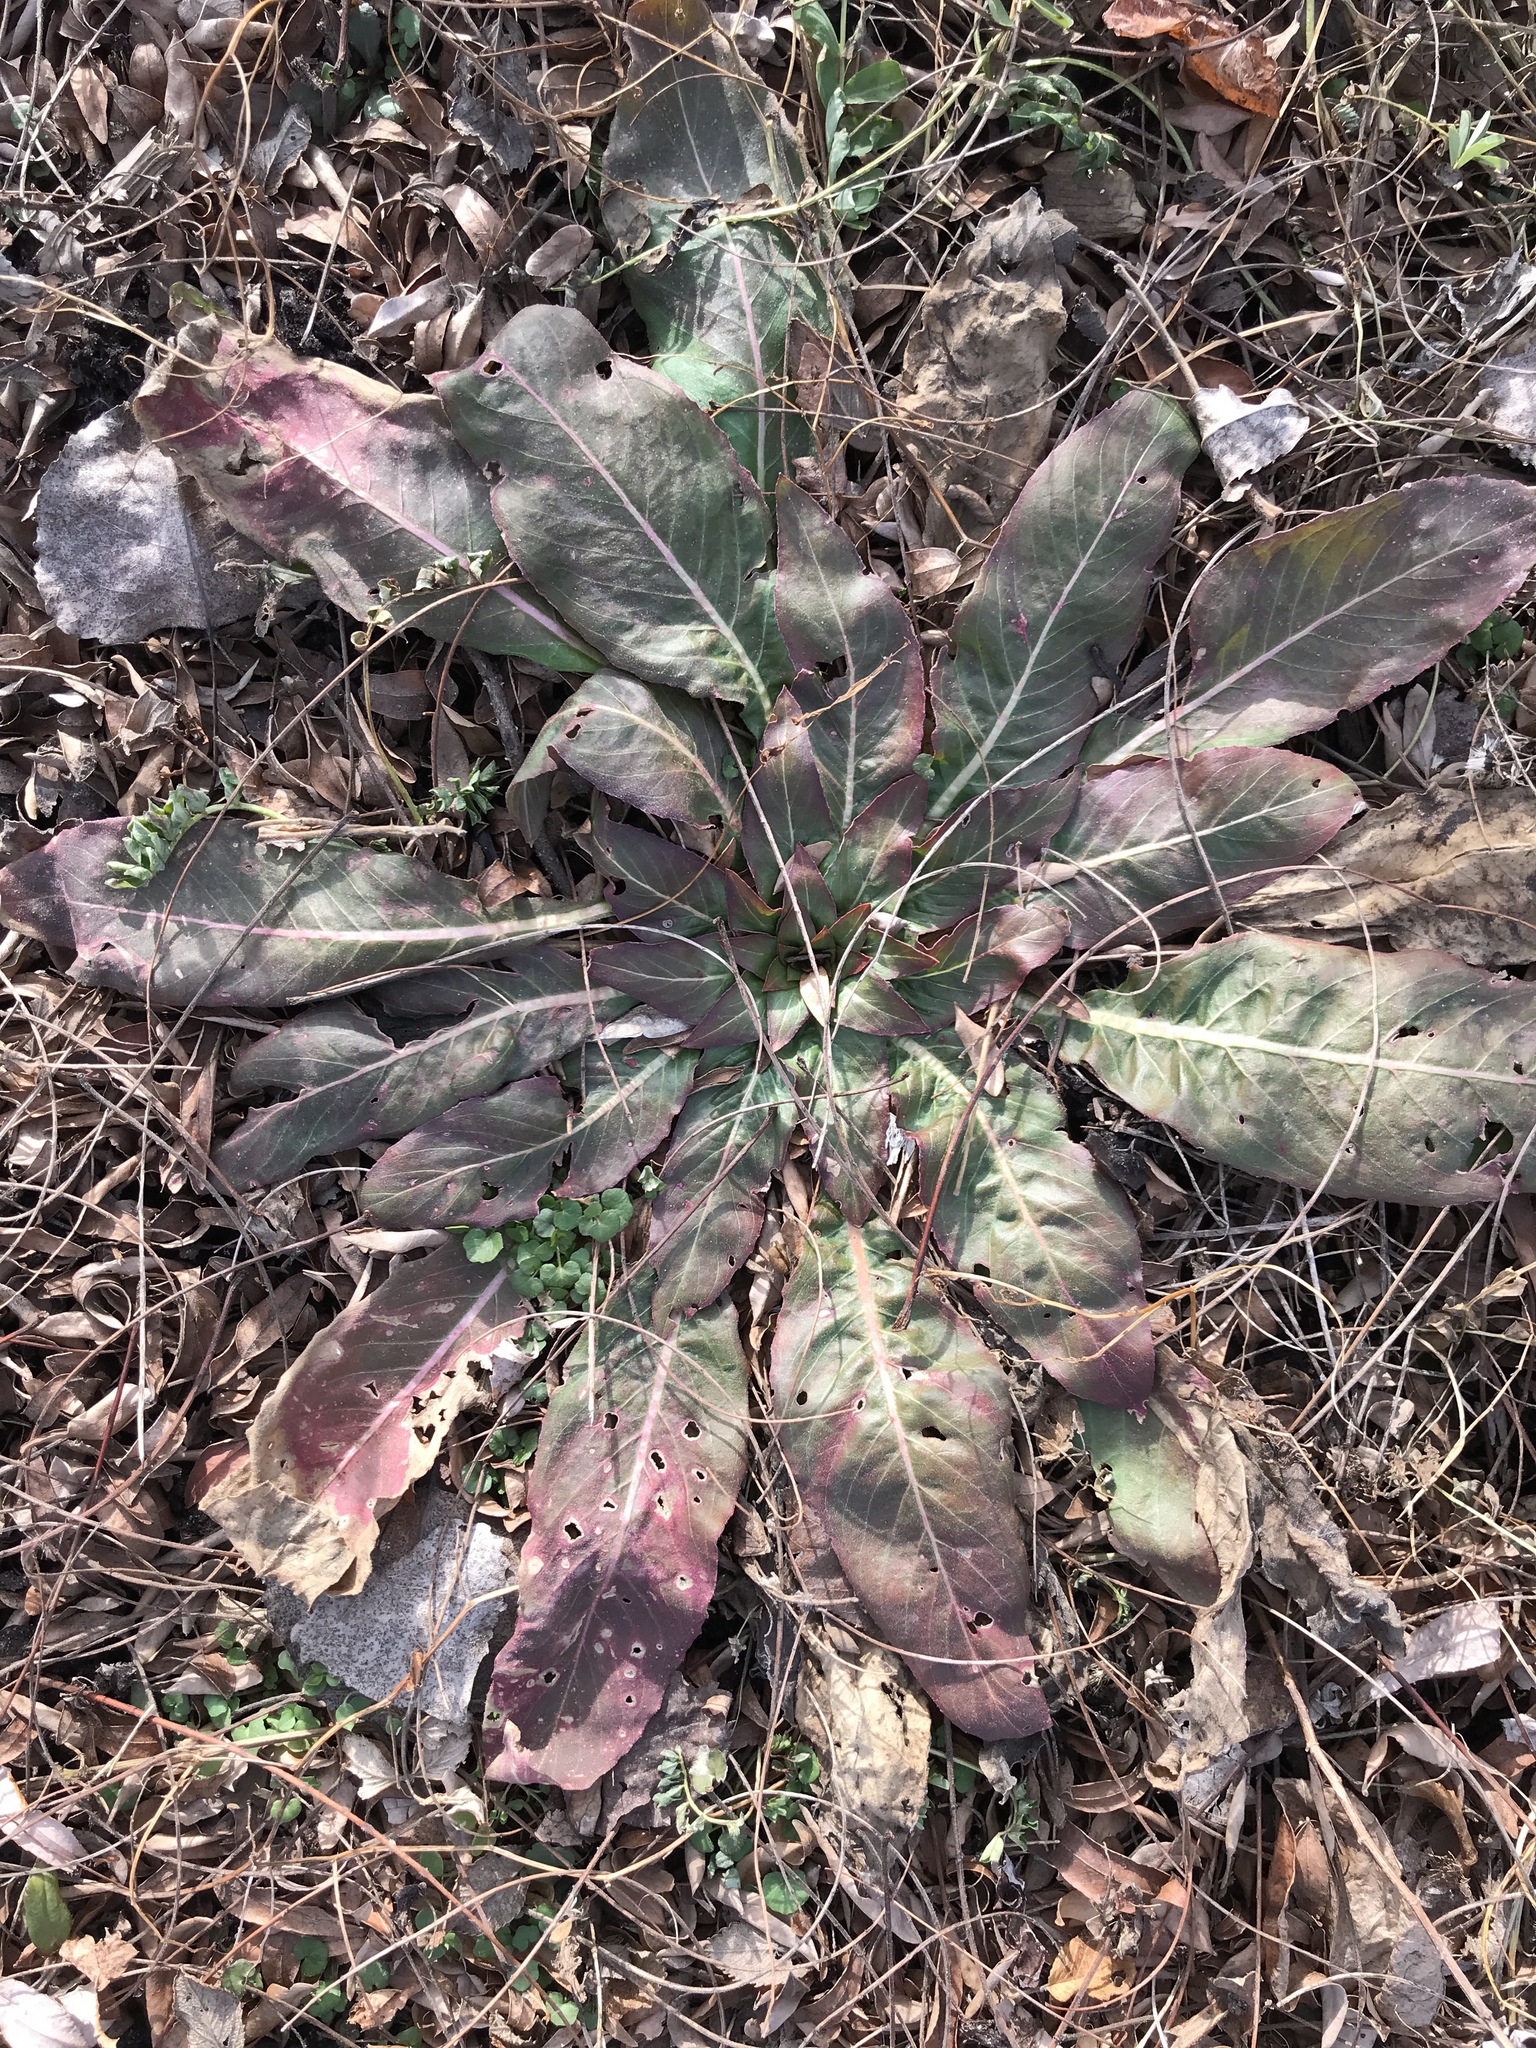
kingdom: Plantae
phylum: Tracheophyta
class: Magnoliopsida
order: Myrtales
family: Onagraceae
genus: Oenothera
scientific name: Oenothera biennis
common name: Common evening-primrose
